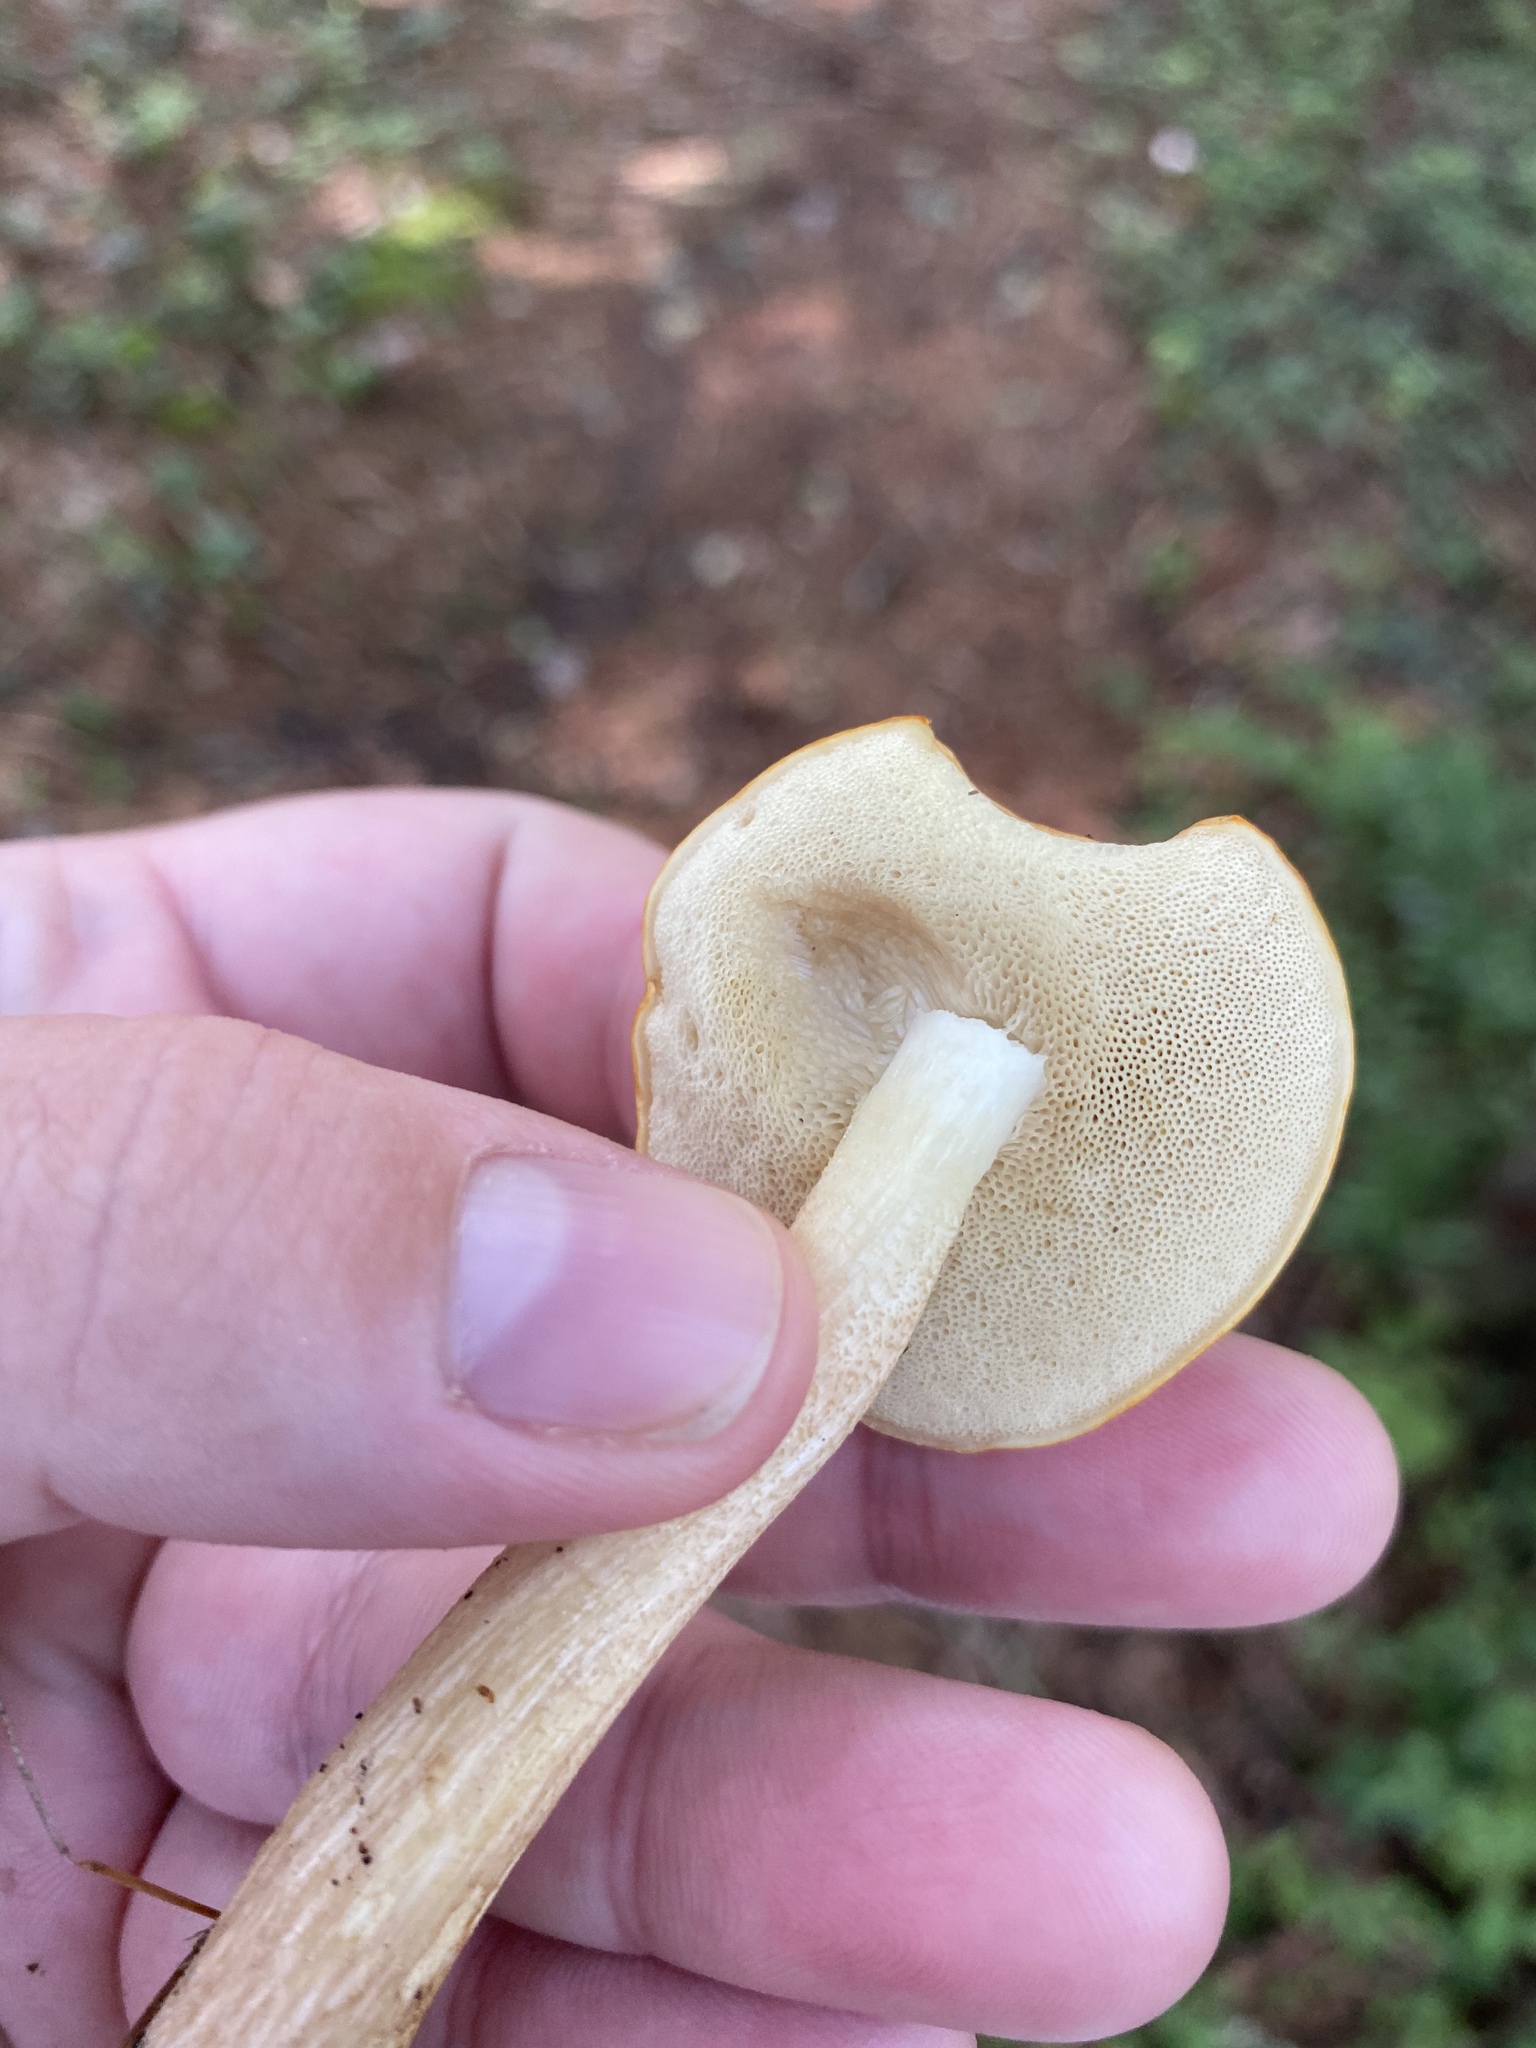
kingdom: Fungi
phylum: Basidiomycota
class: Agaricomycetes
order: Boletales
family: Boletaceae
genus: Leccinum
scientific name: Leccinum longicurvipes
